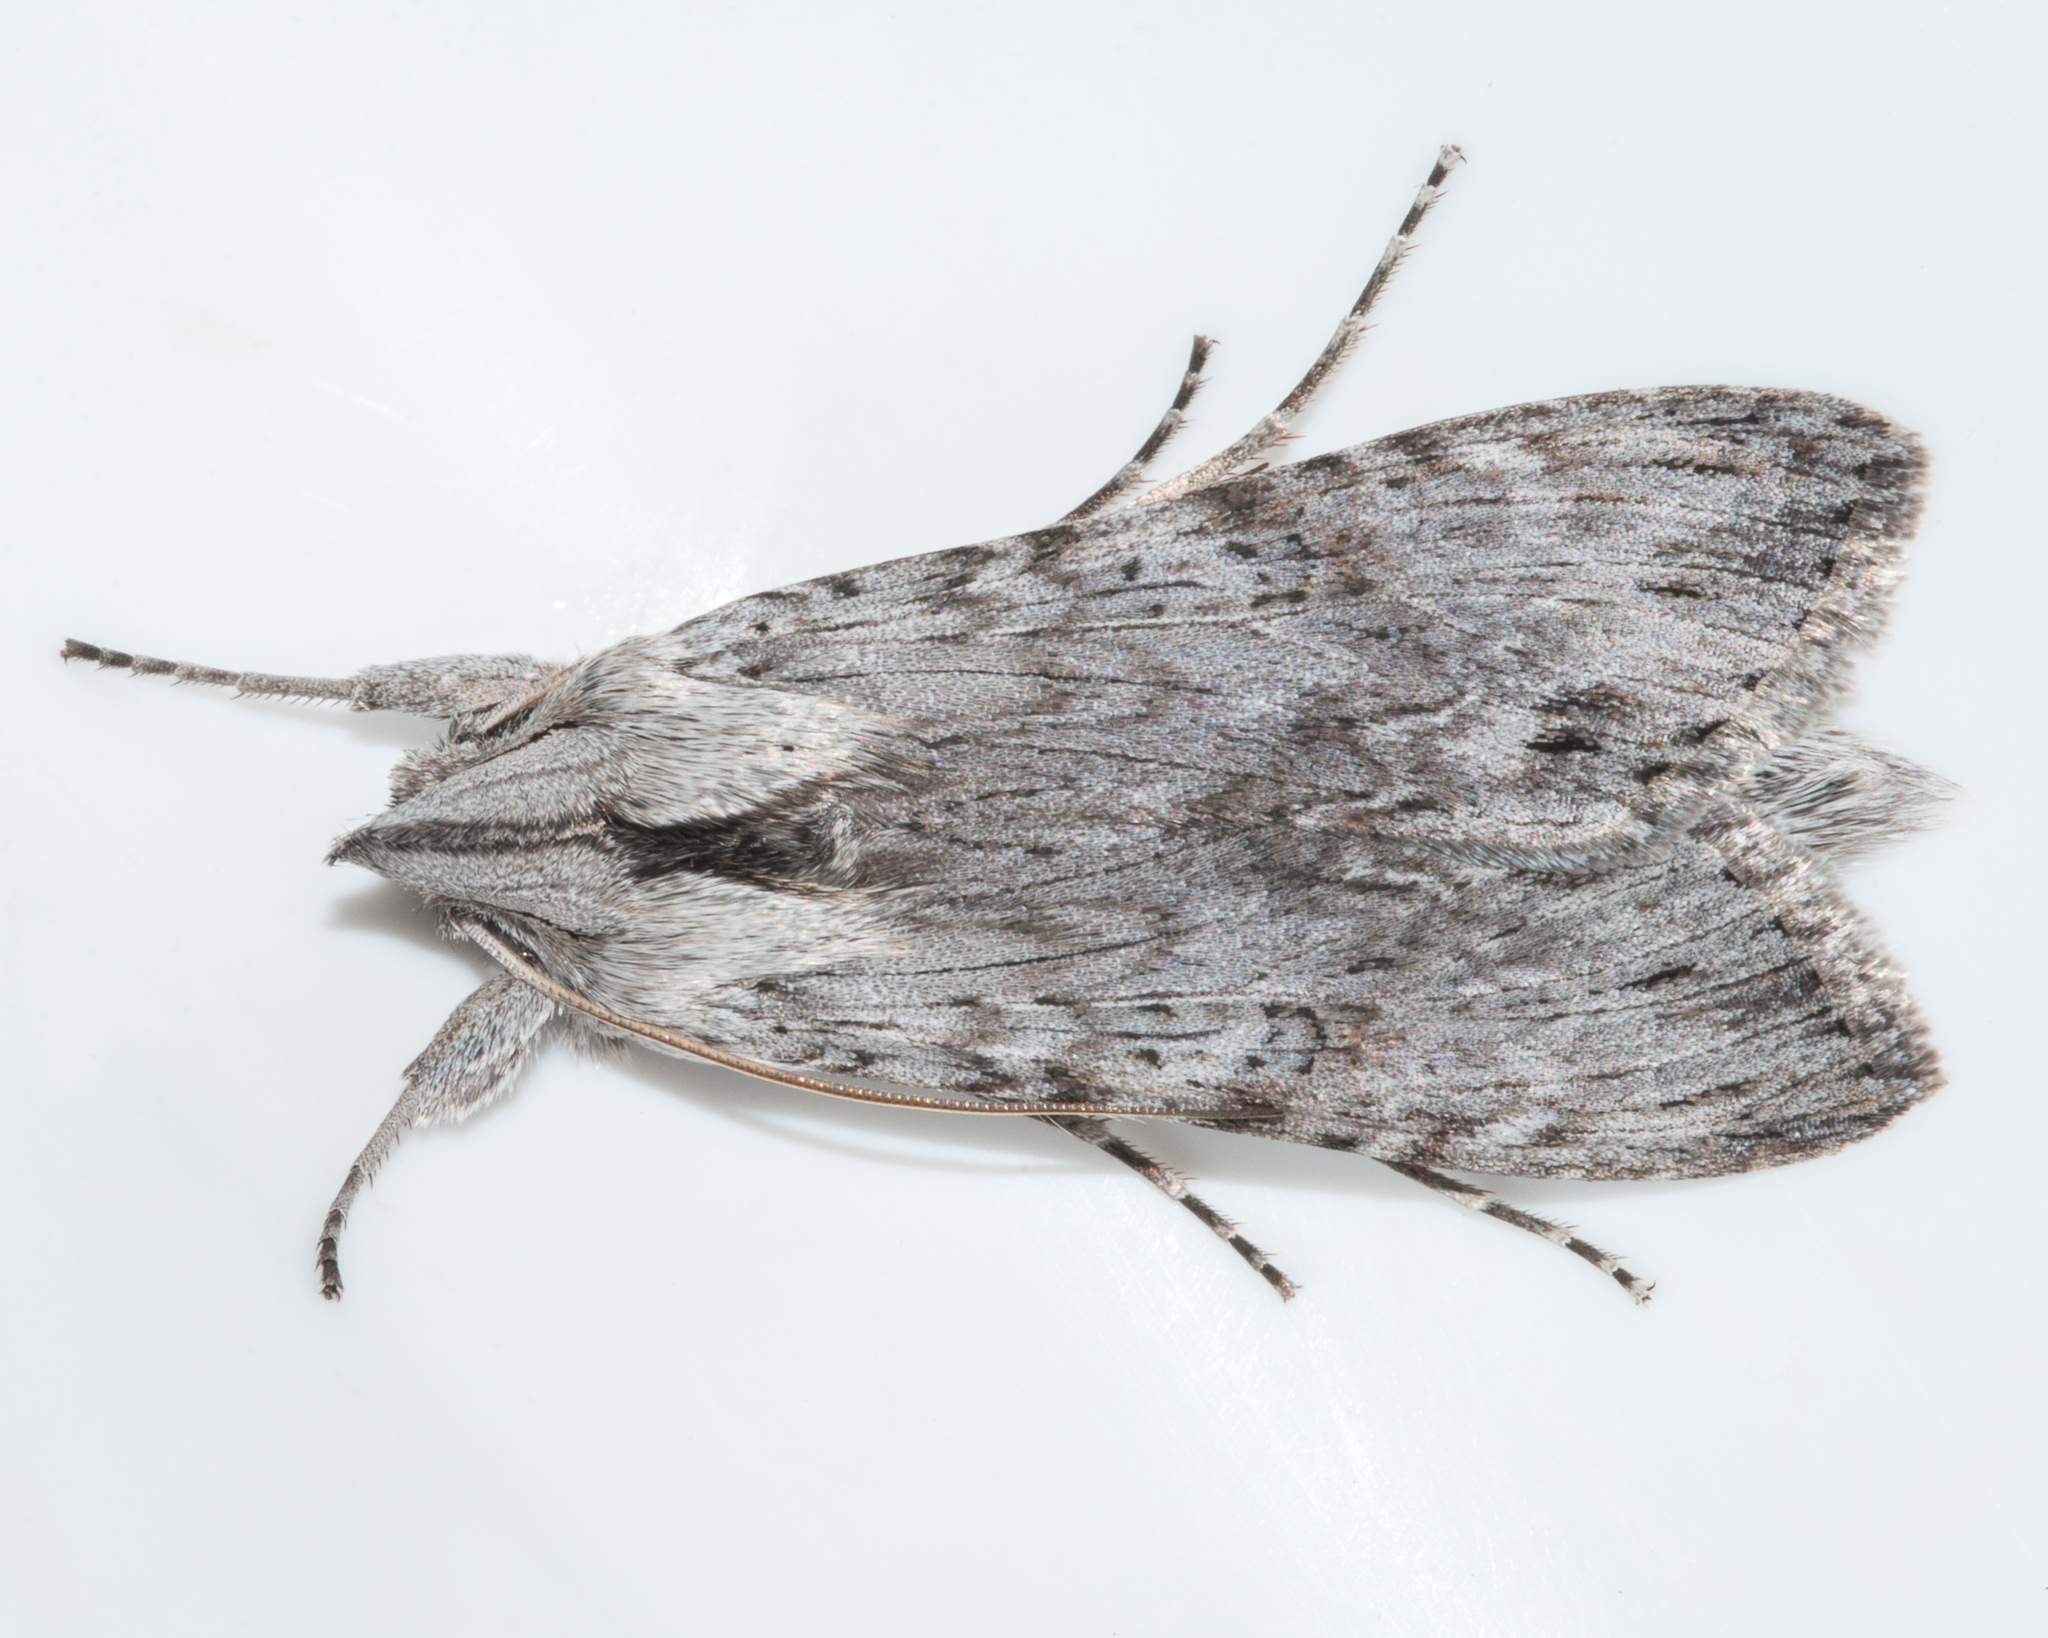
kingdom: Animalia
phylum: Arthropoda
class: Insecta
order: Lepidoptera
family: Noctuidae
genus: Cucullia
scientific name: Cucullia inaequalis
